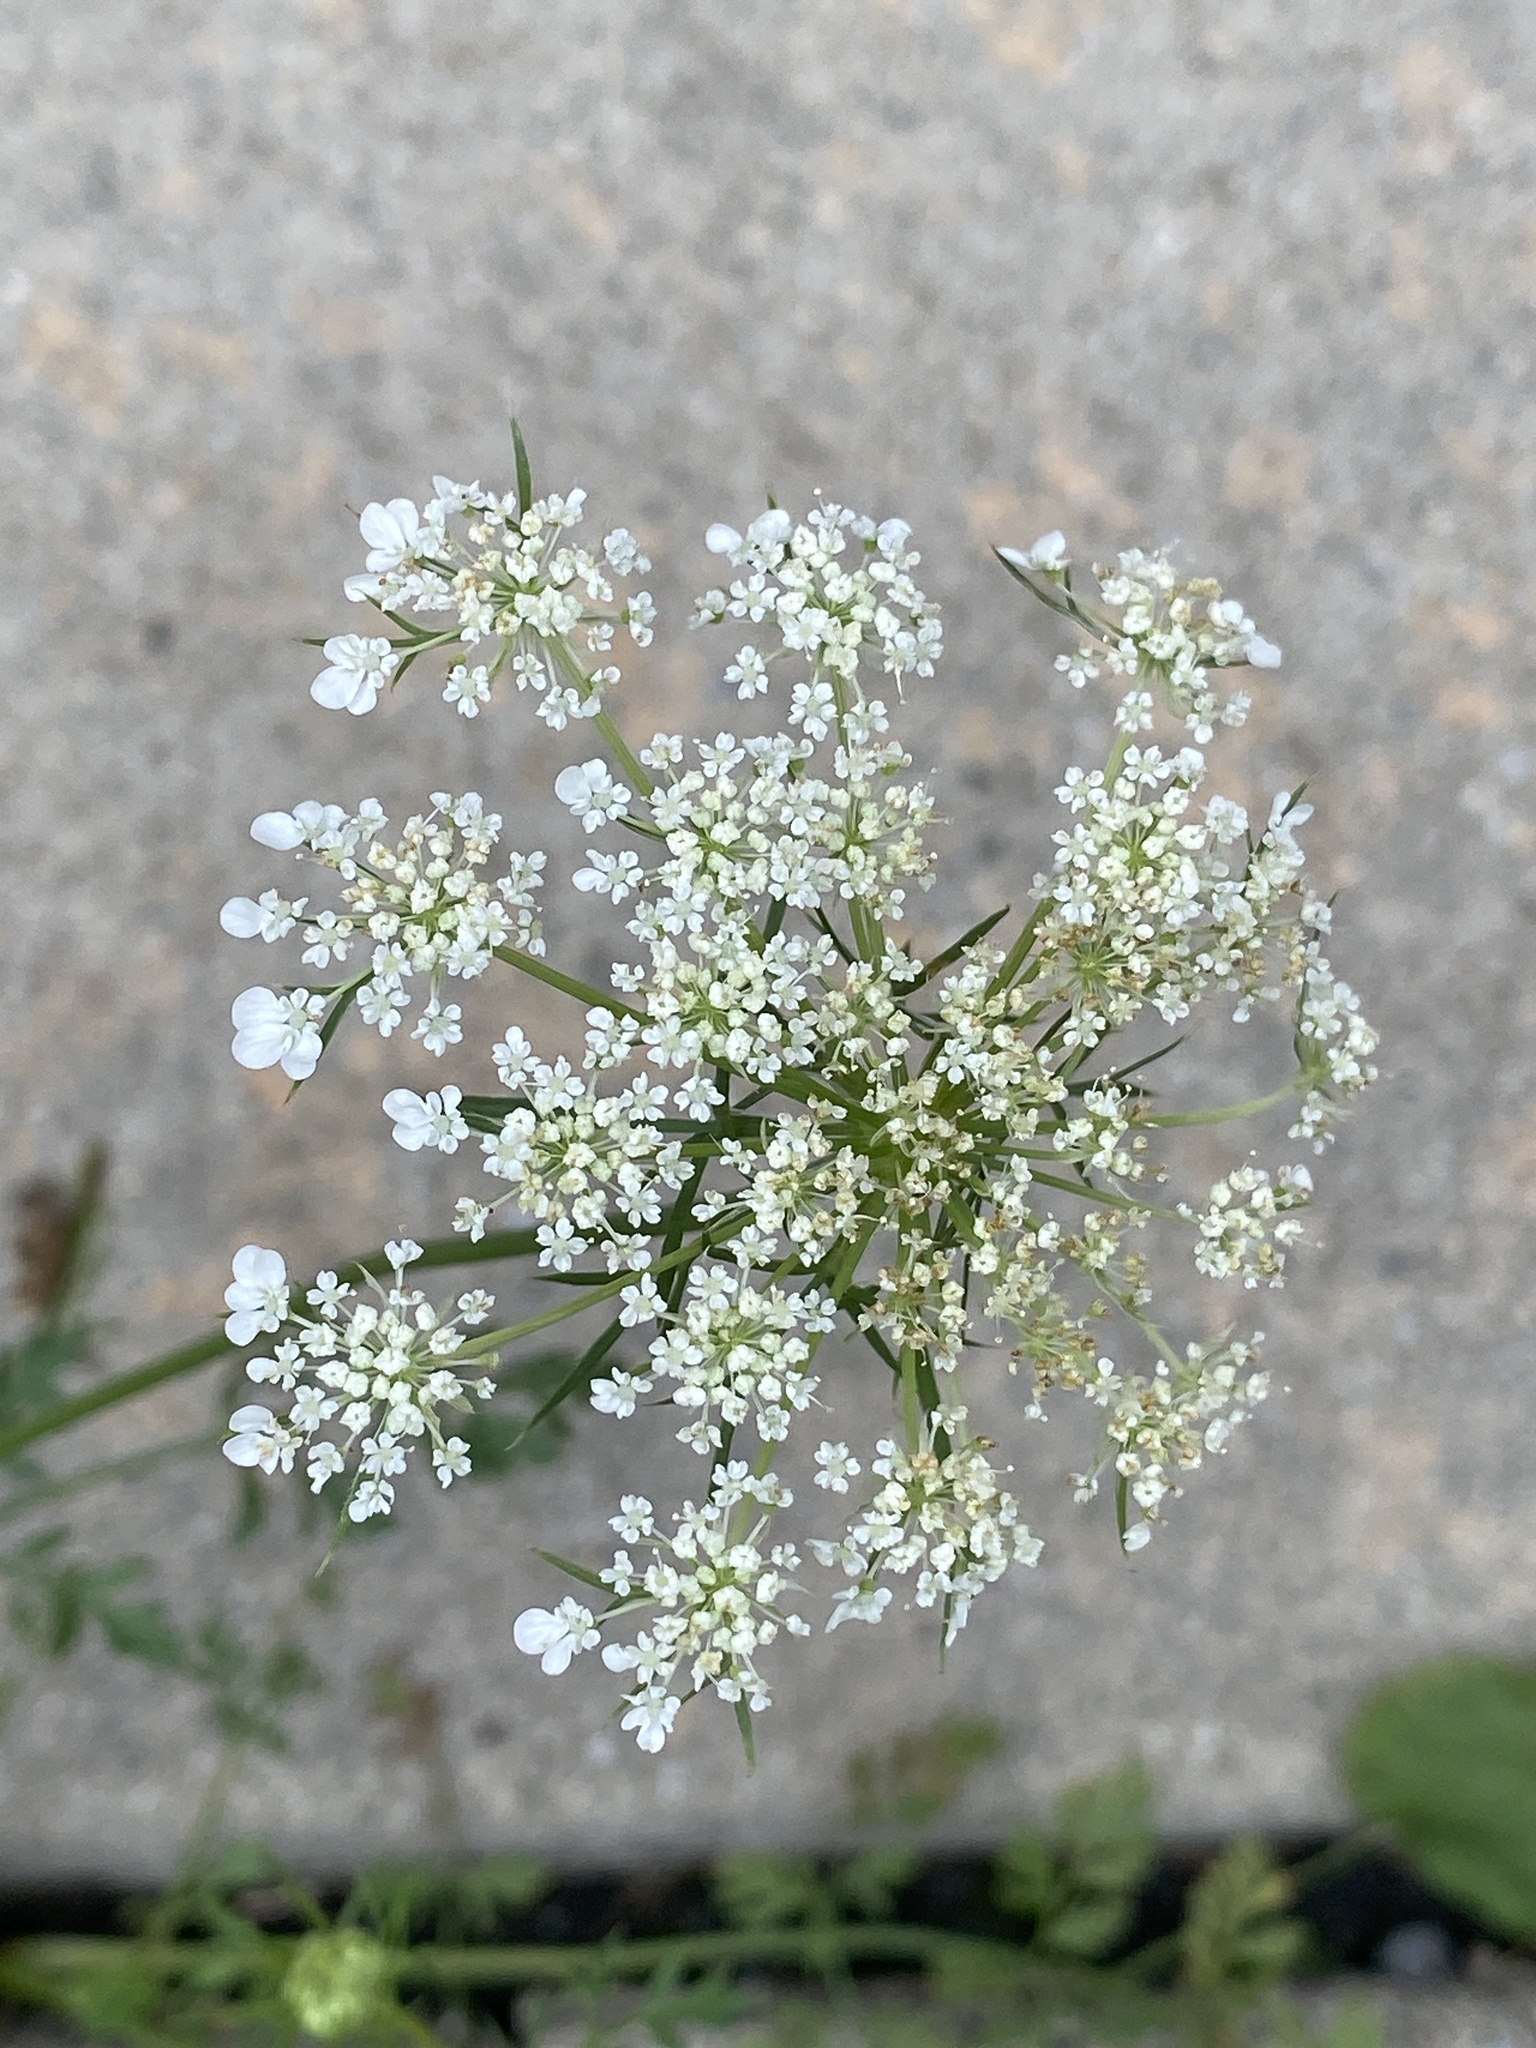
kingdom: Plantae
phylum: Tracheophyta
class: Magnoliopsida
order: Apiales
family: Apiaceae
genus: Daucus
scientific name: Daucus carota
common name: Wild carrot
